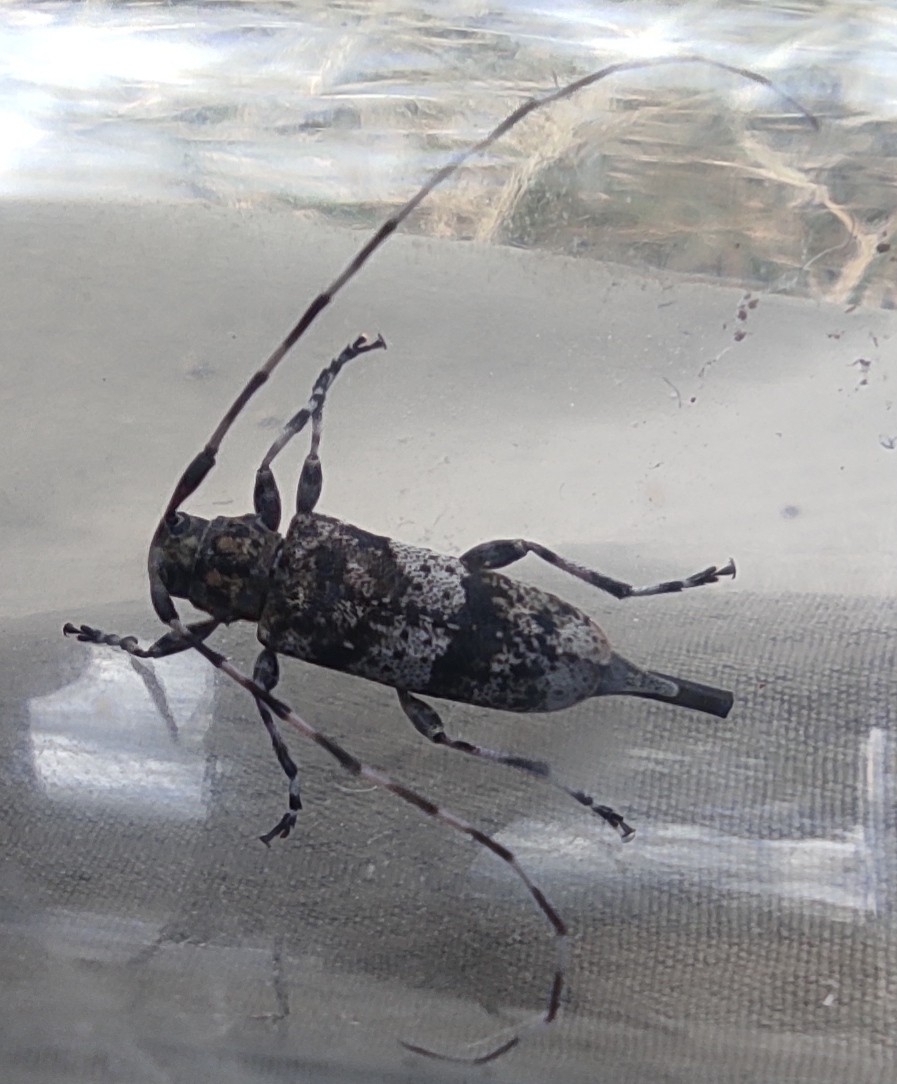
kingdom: Animalia
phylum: Arthropoda
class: Insecta
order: Coleoptera
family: Cerambycidae
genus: Acanthocinus
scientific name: Acanthocinus griseus
